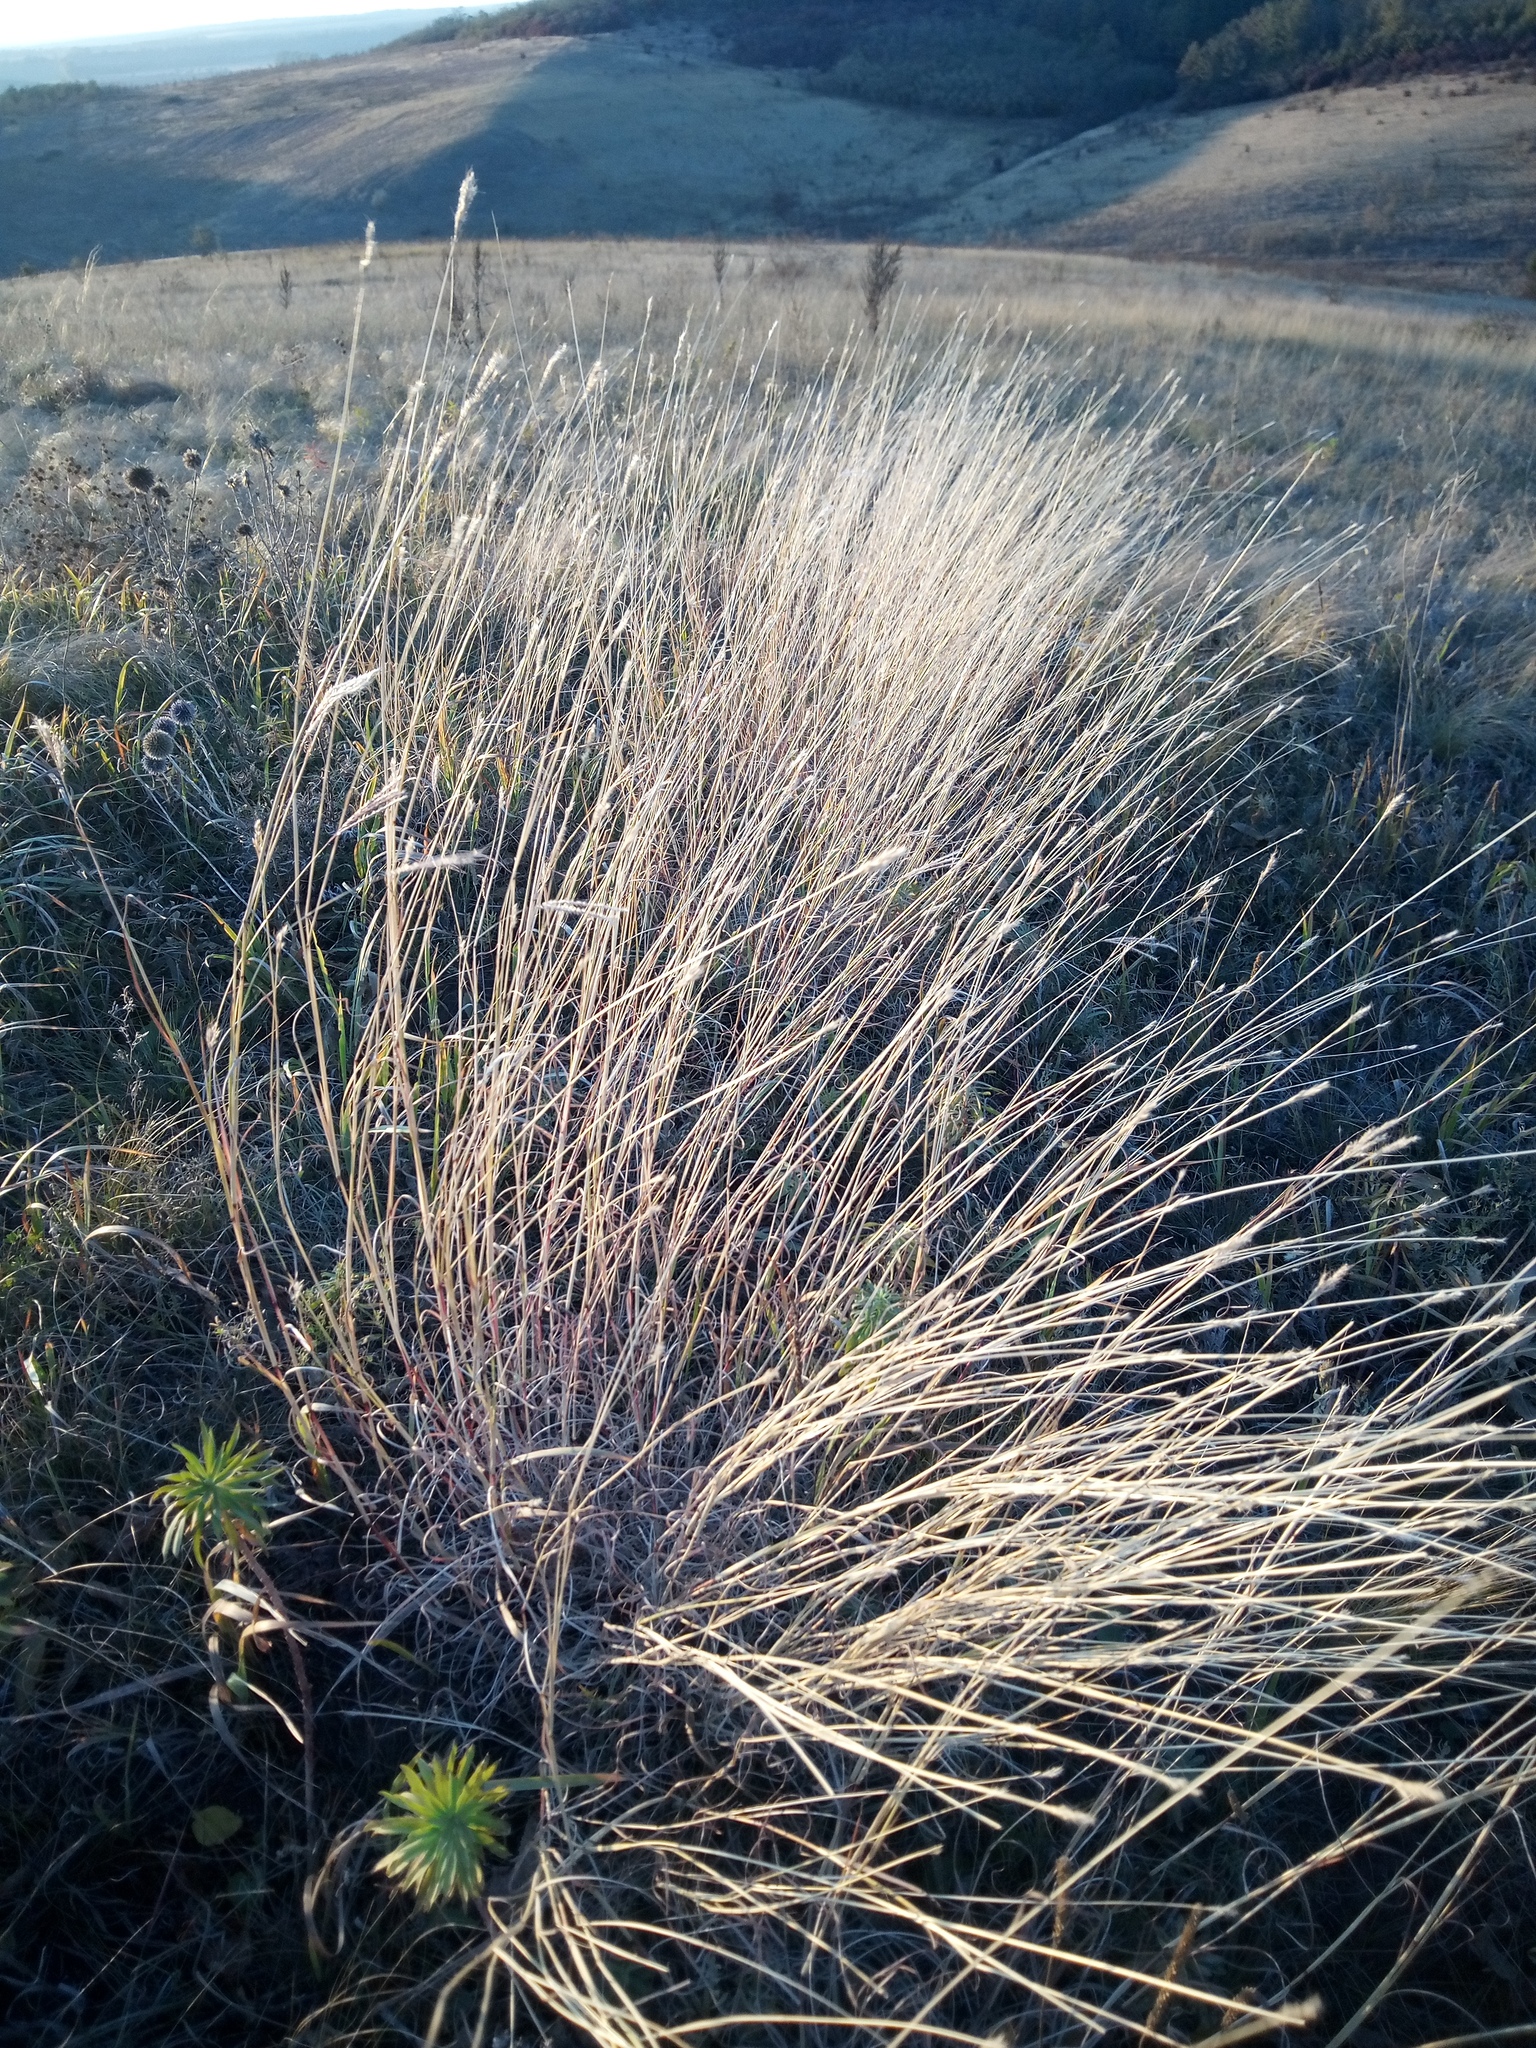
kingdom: Plantae
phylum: Tracheophyta
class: Liliopsida
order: Poales
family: Poaceae
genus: Bothriochloa
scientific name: Bothriochloa ischaemum
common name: Yellow bluestem
